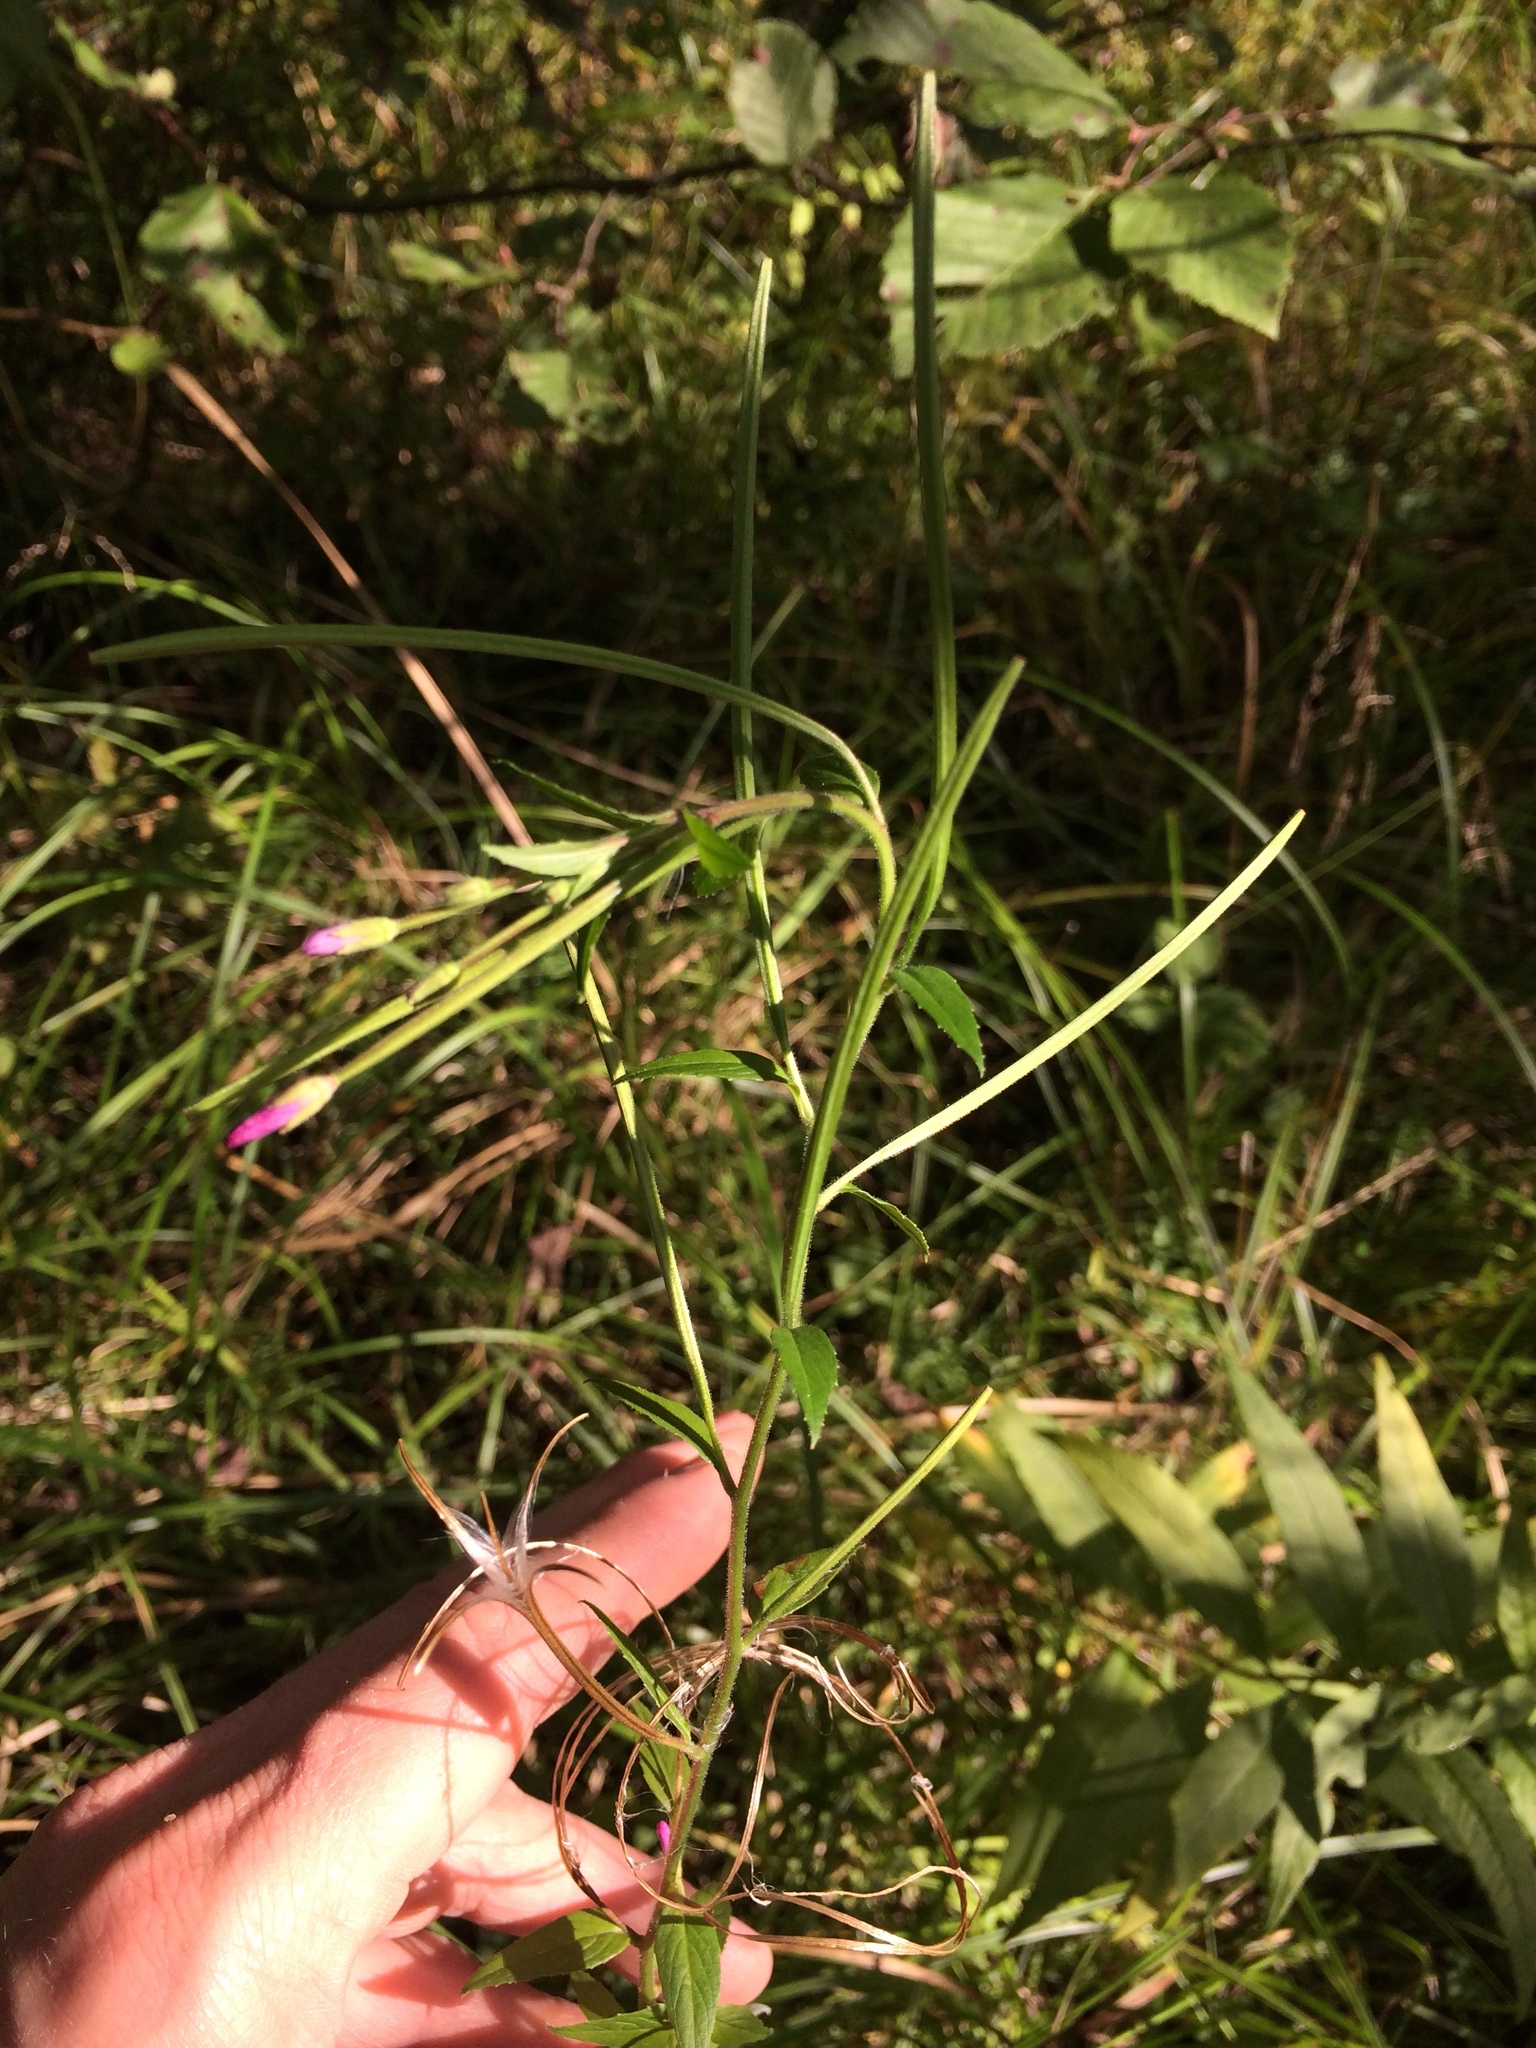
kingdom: Plantae
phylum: Tracheophyta
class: Magnoliopsida
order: Myrtales
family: Onagraceae
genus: Epilobium
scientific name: Epilobium parviflorum
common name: Hoary willowherb
